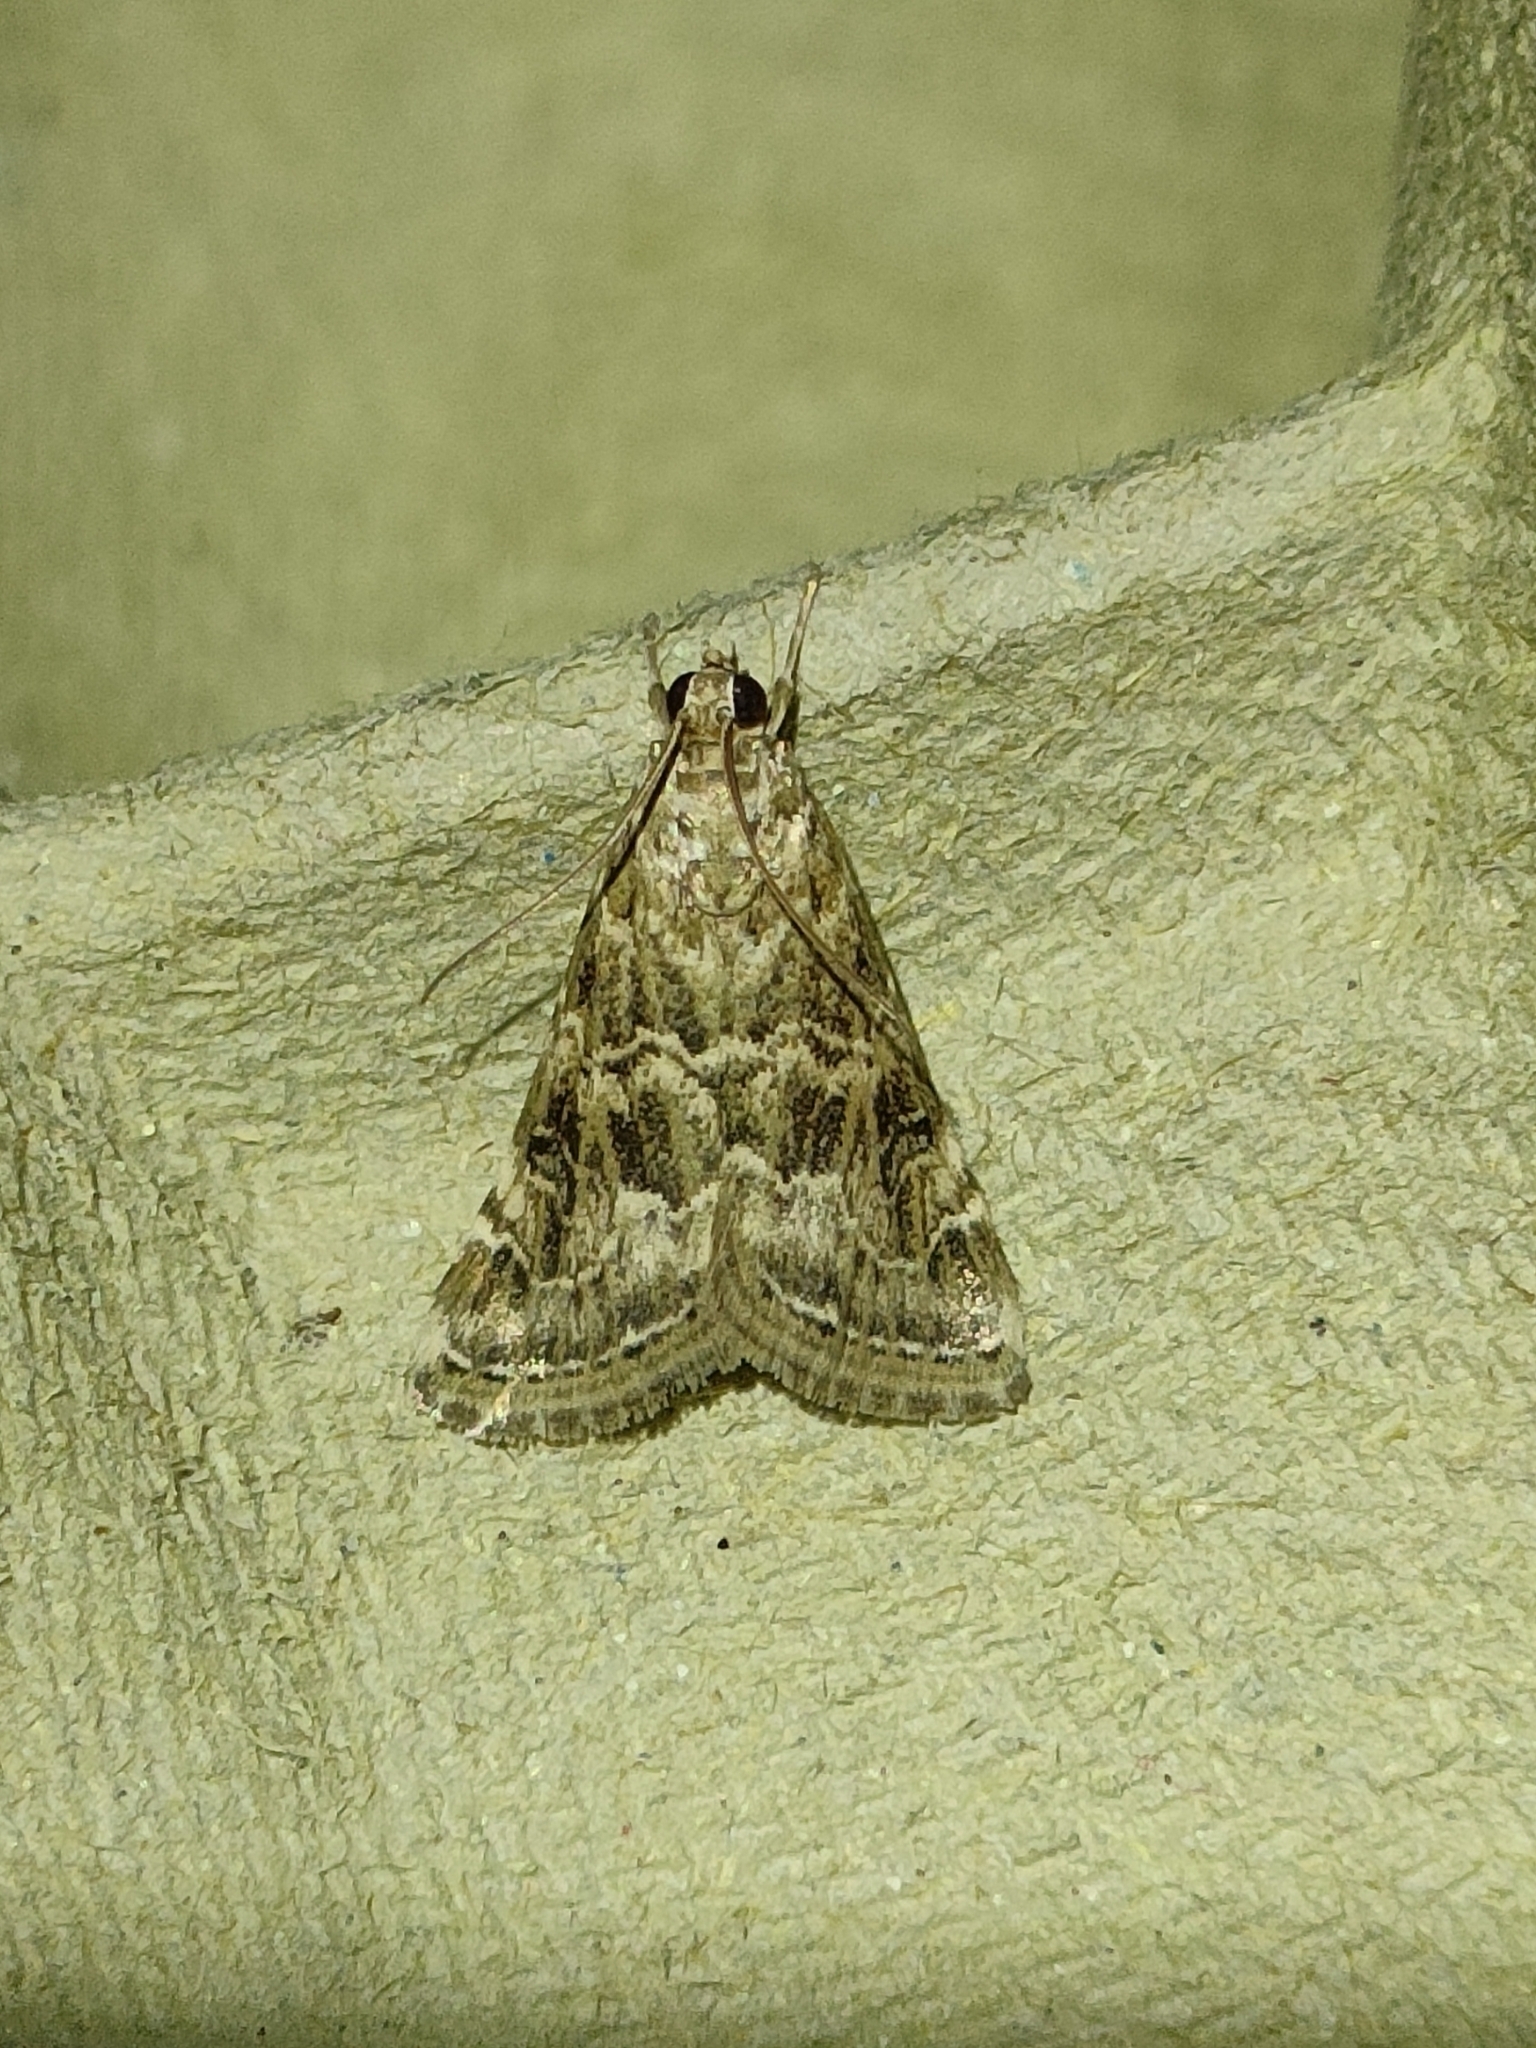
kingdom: Animalia
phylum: Arthropoda
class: Insecta
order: Lepidoptera
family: Crambidae
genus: Hellula
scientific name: Hellula undalis
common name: Cabbage webworm
